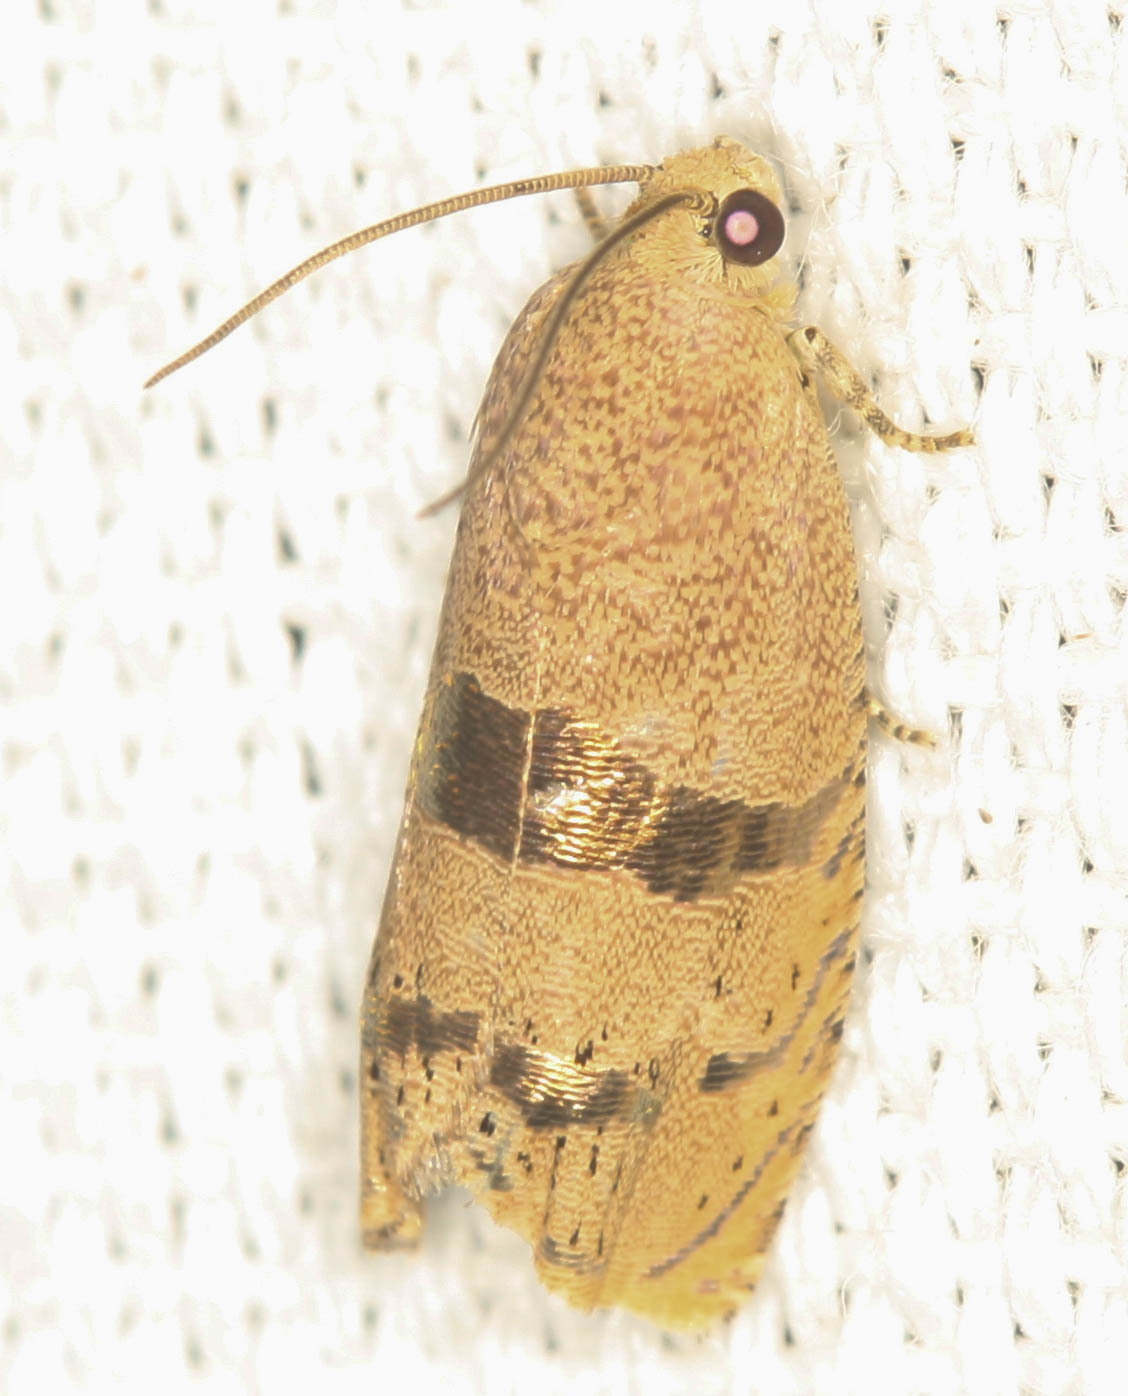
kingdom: Animalia
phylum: Arthropoda
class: Insecta
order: Lepidoptera
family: Tortricidae
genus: Cydia
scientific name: Cydia latiferreana
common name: Filbertworm moth
